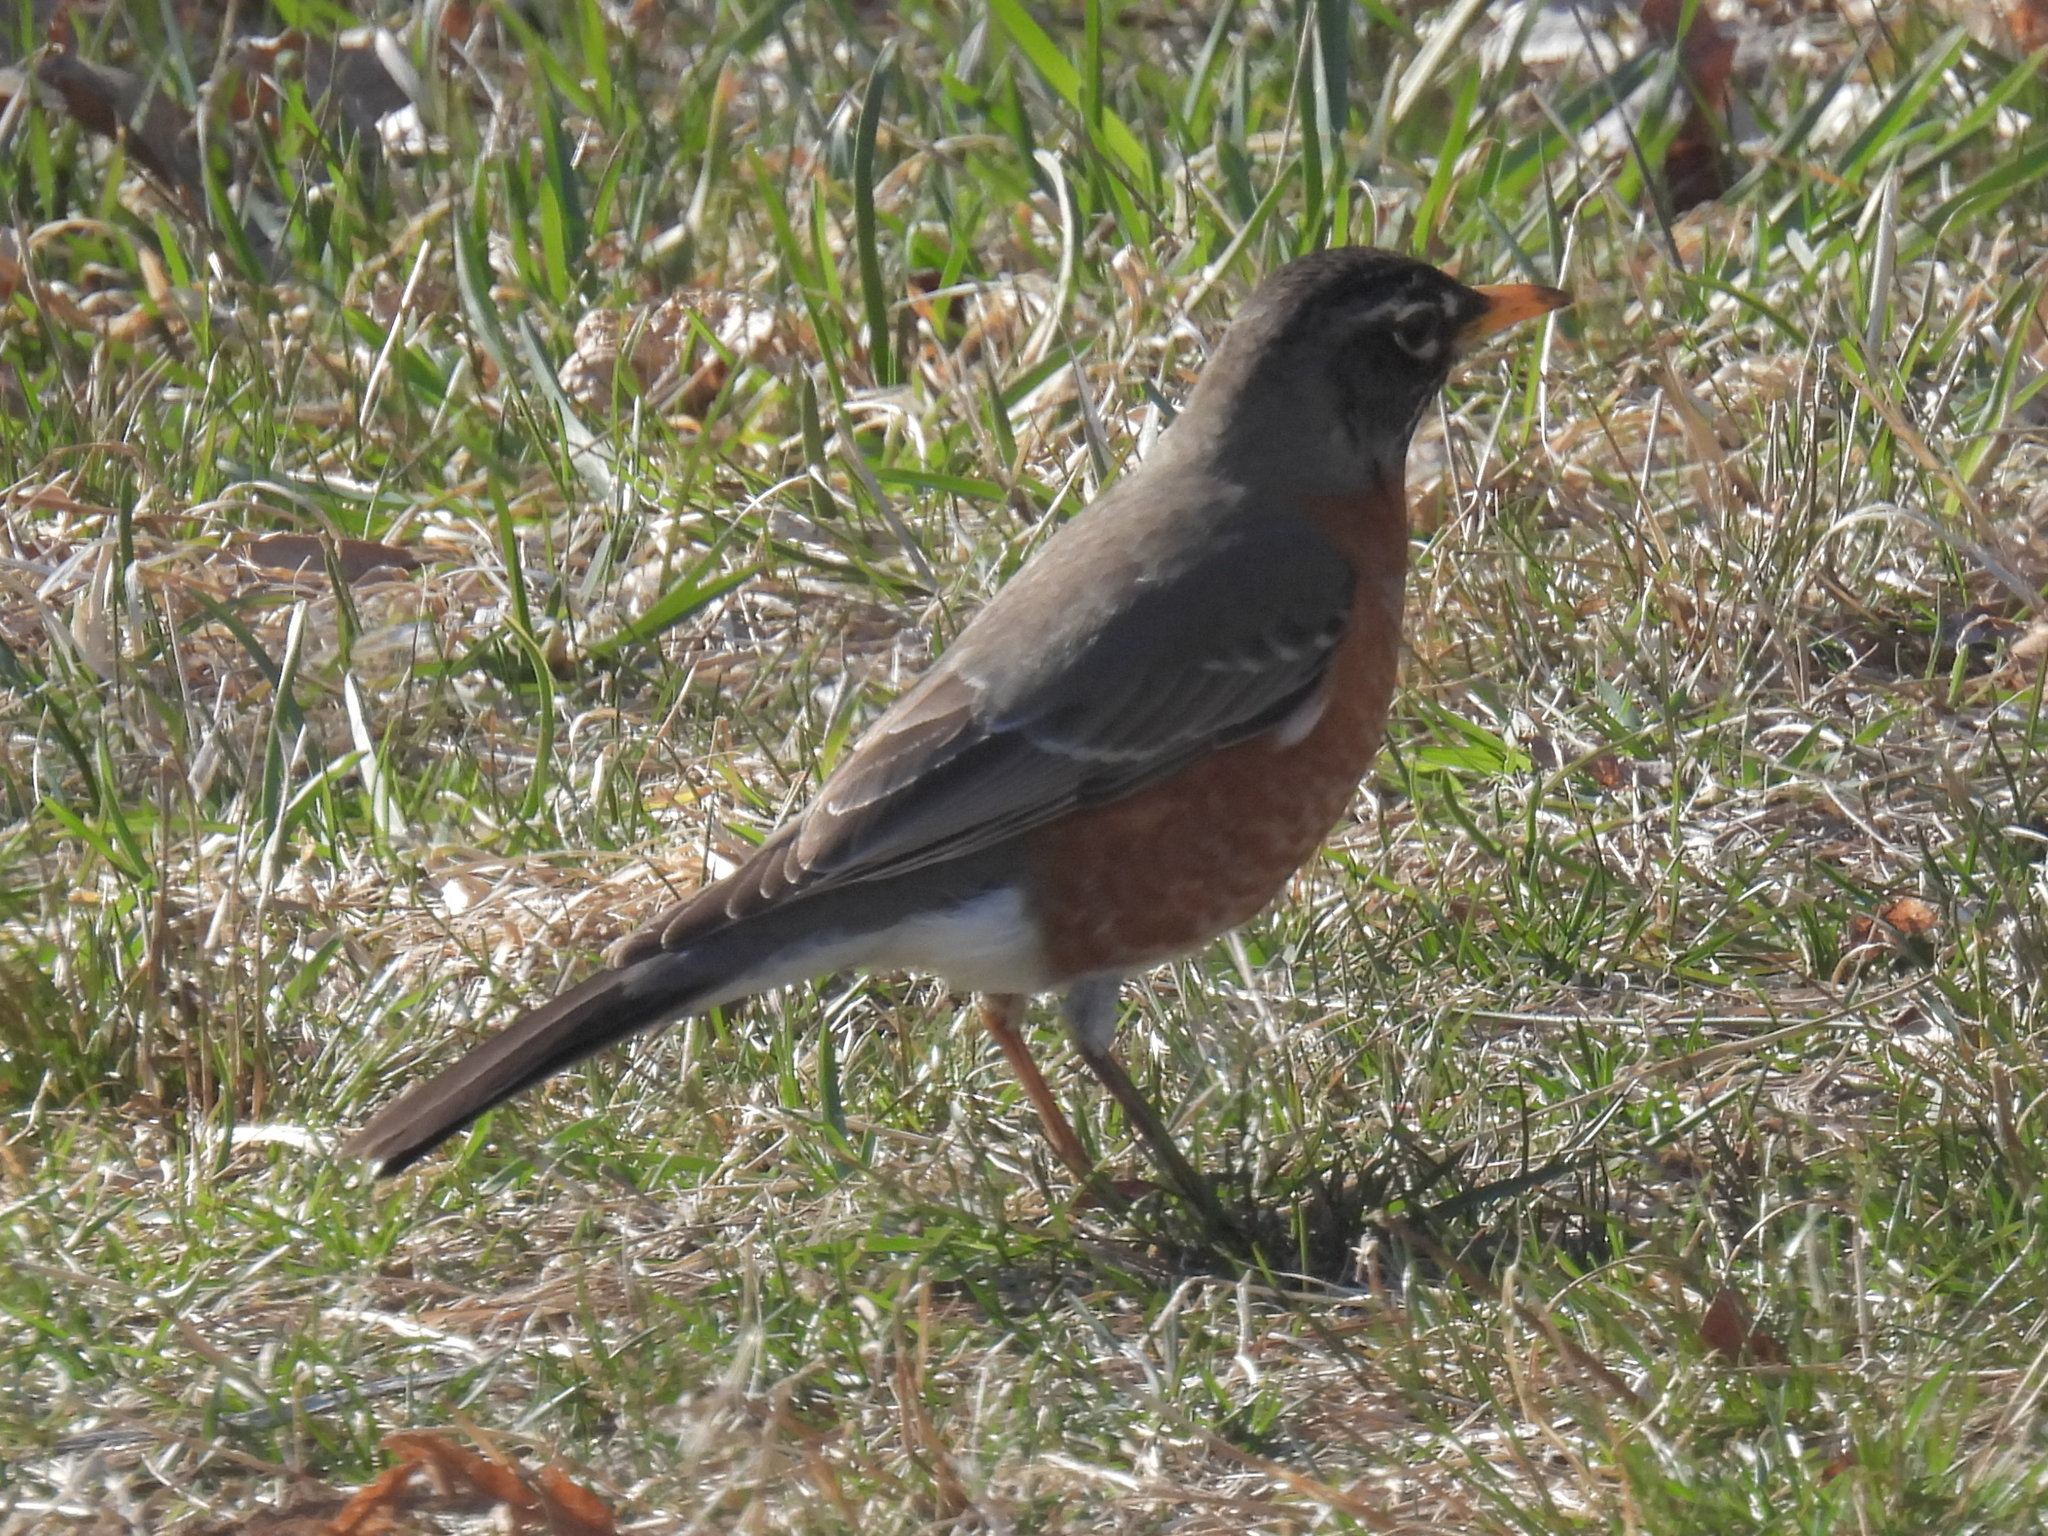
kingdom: Animalia
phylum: Chordata
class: Aves
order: Passeriformes
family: Turdidae
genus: Turdus
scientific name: Turdus migratorius
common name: American robin
